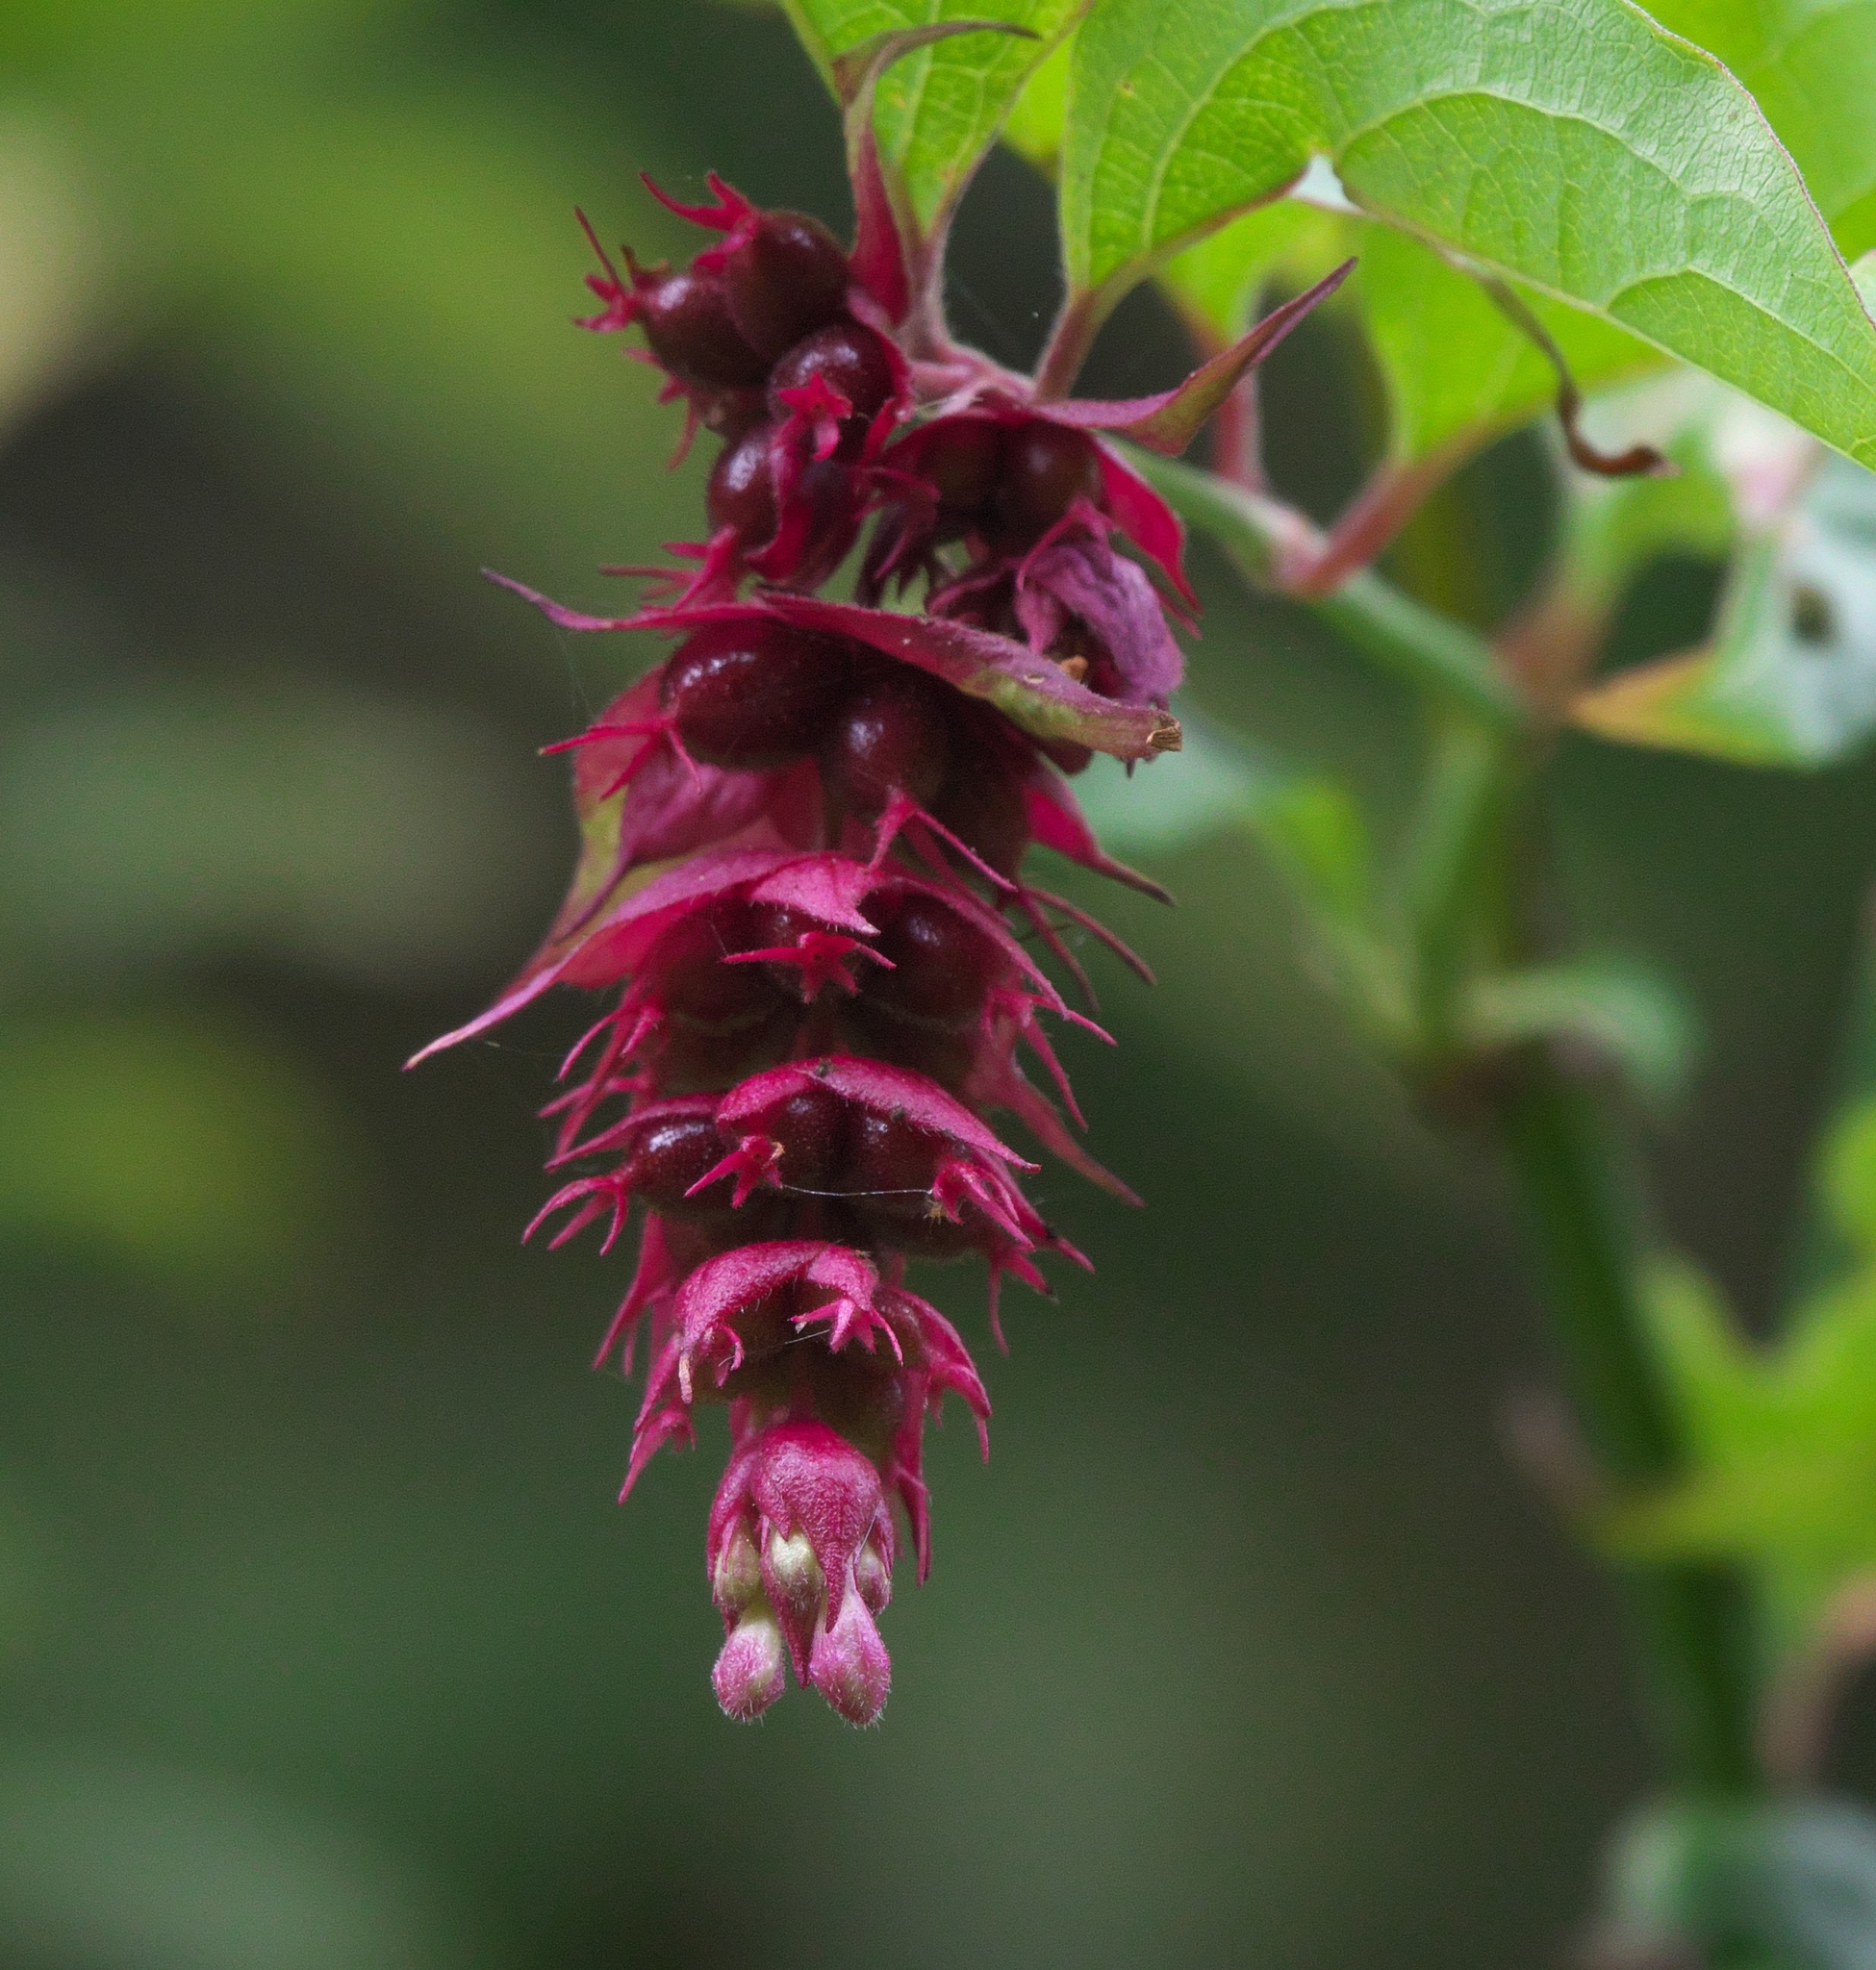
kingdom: Plantae
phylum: Tracheophyta
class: Magnoliopsida
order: Dipsacales
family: Caprifoliaceae
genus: Leycesteria
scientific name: Leycesteria formosa
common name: Himalayan honeysuckle
